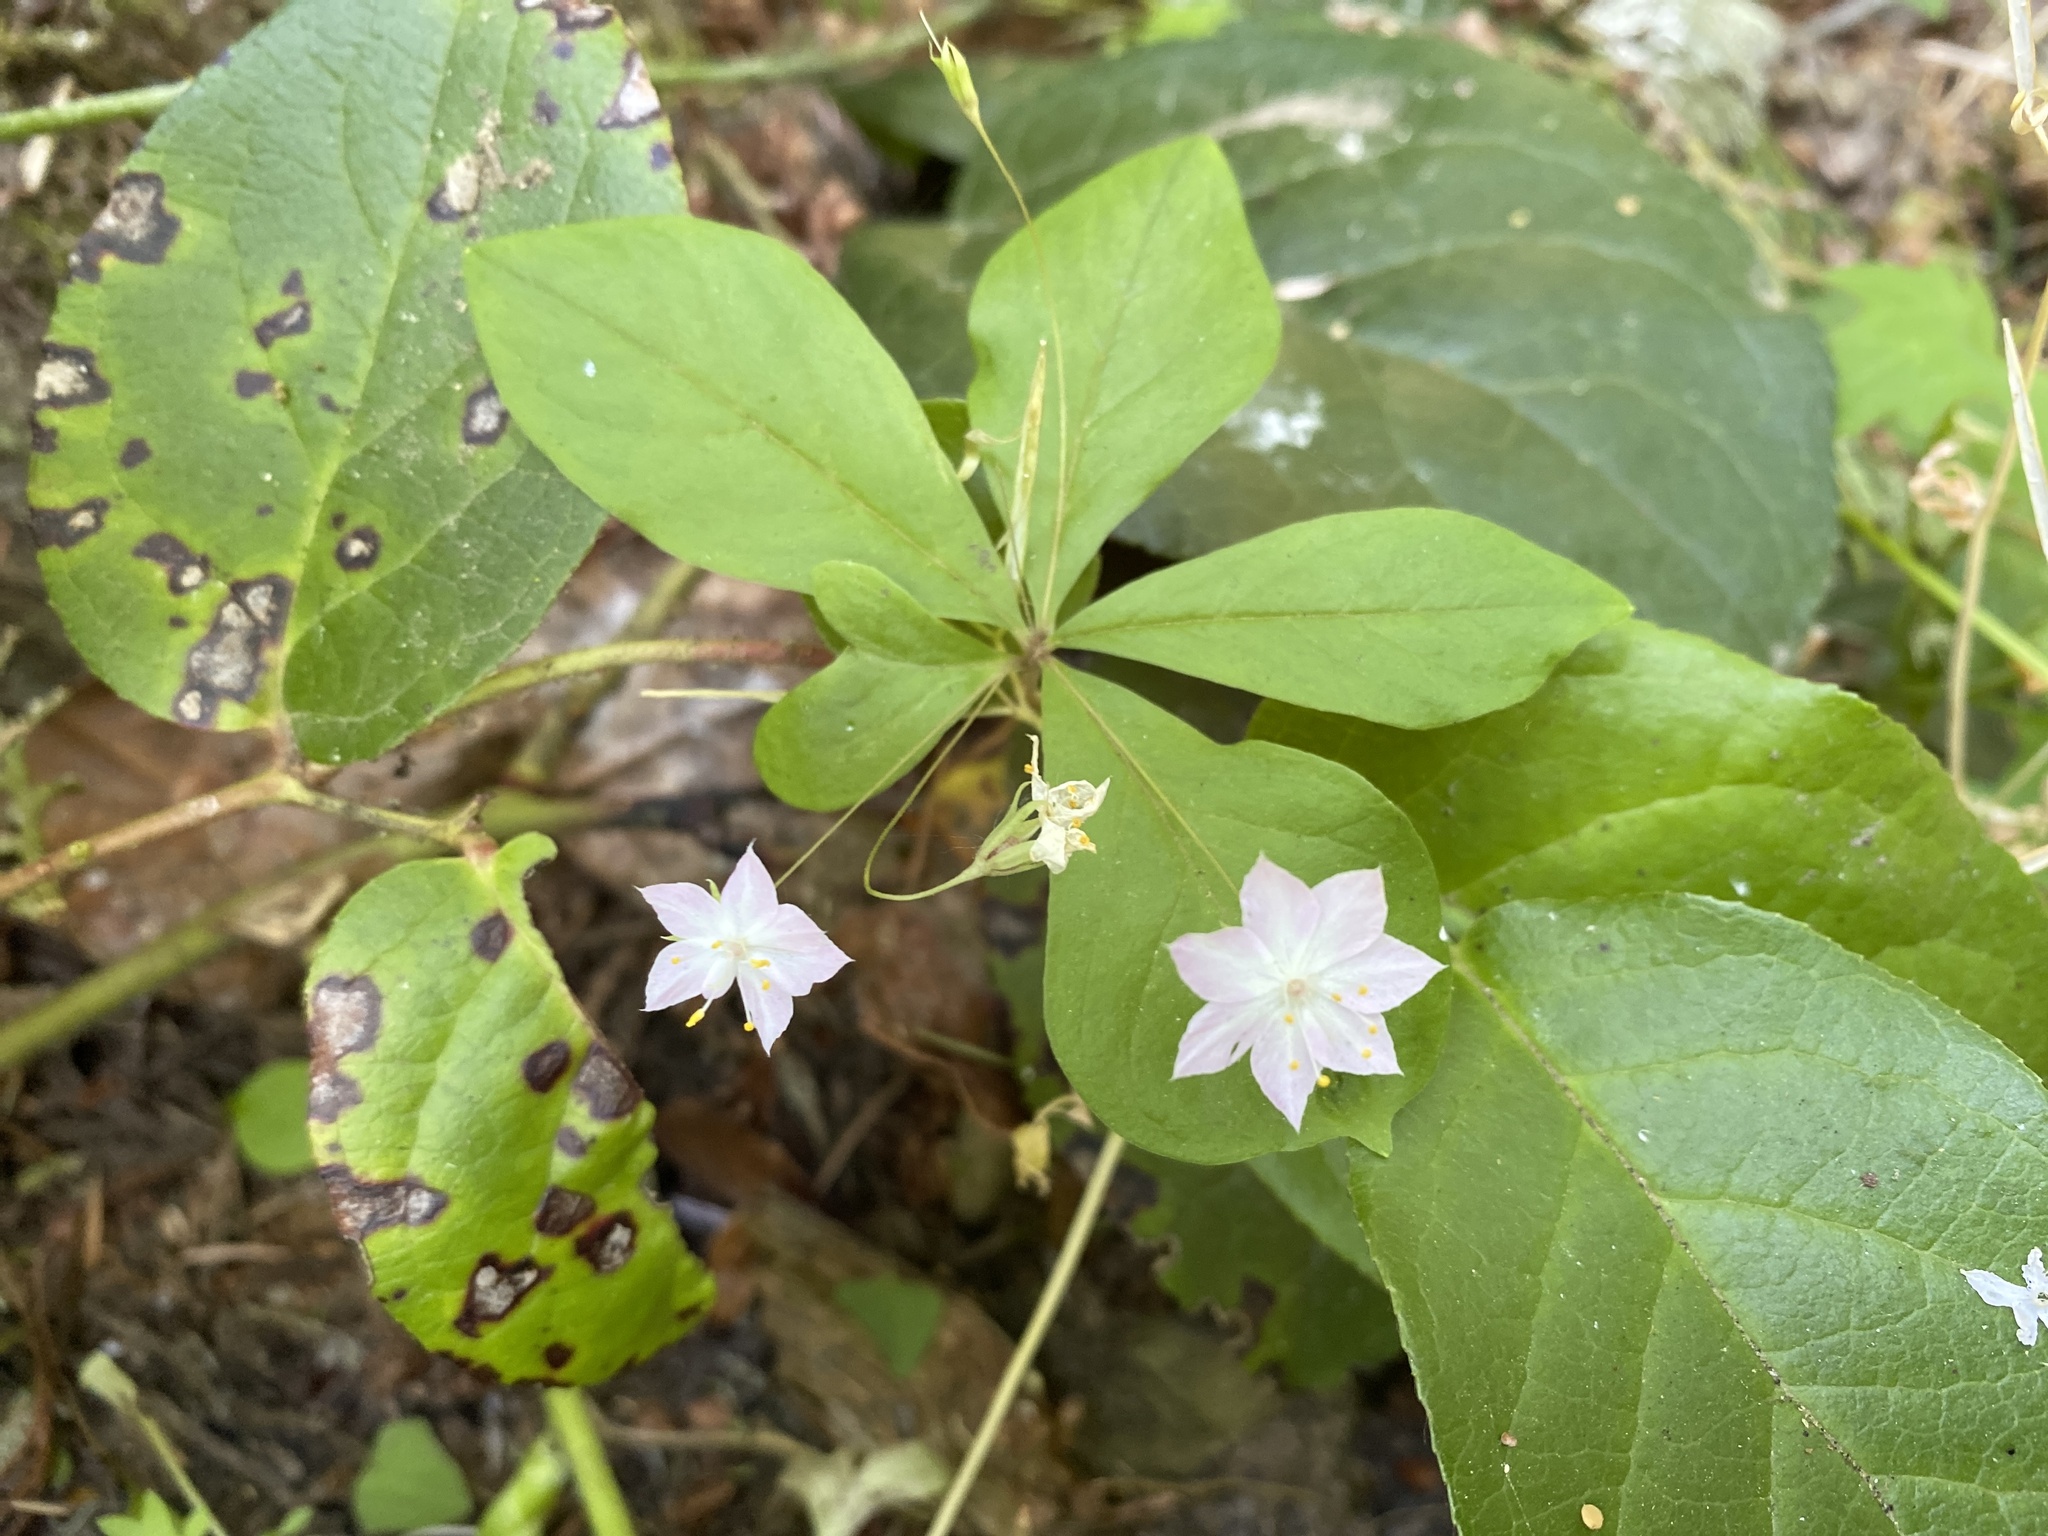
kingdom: Plantae
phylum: Tracheophyta
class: Magnoliopsida
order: Ericales
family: Primulaceae
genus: Lysimachia
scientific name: Lysimachia latifolia
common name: Pacific starflower
